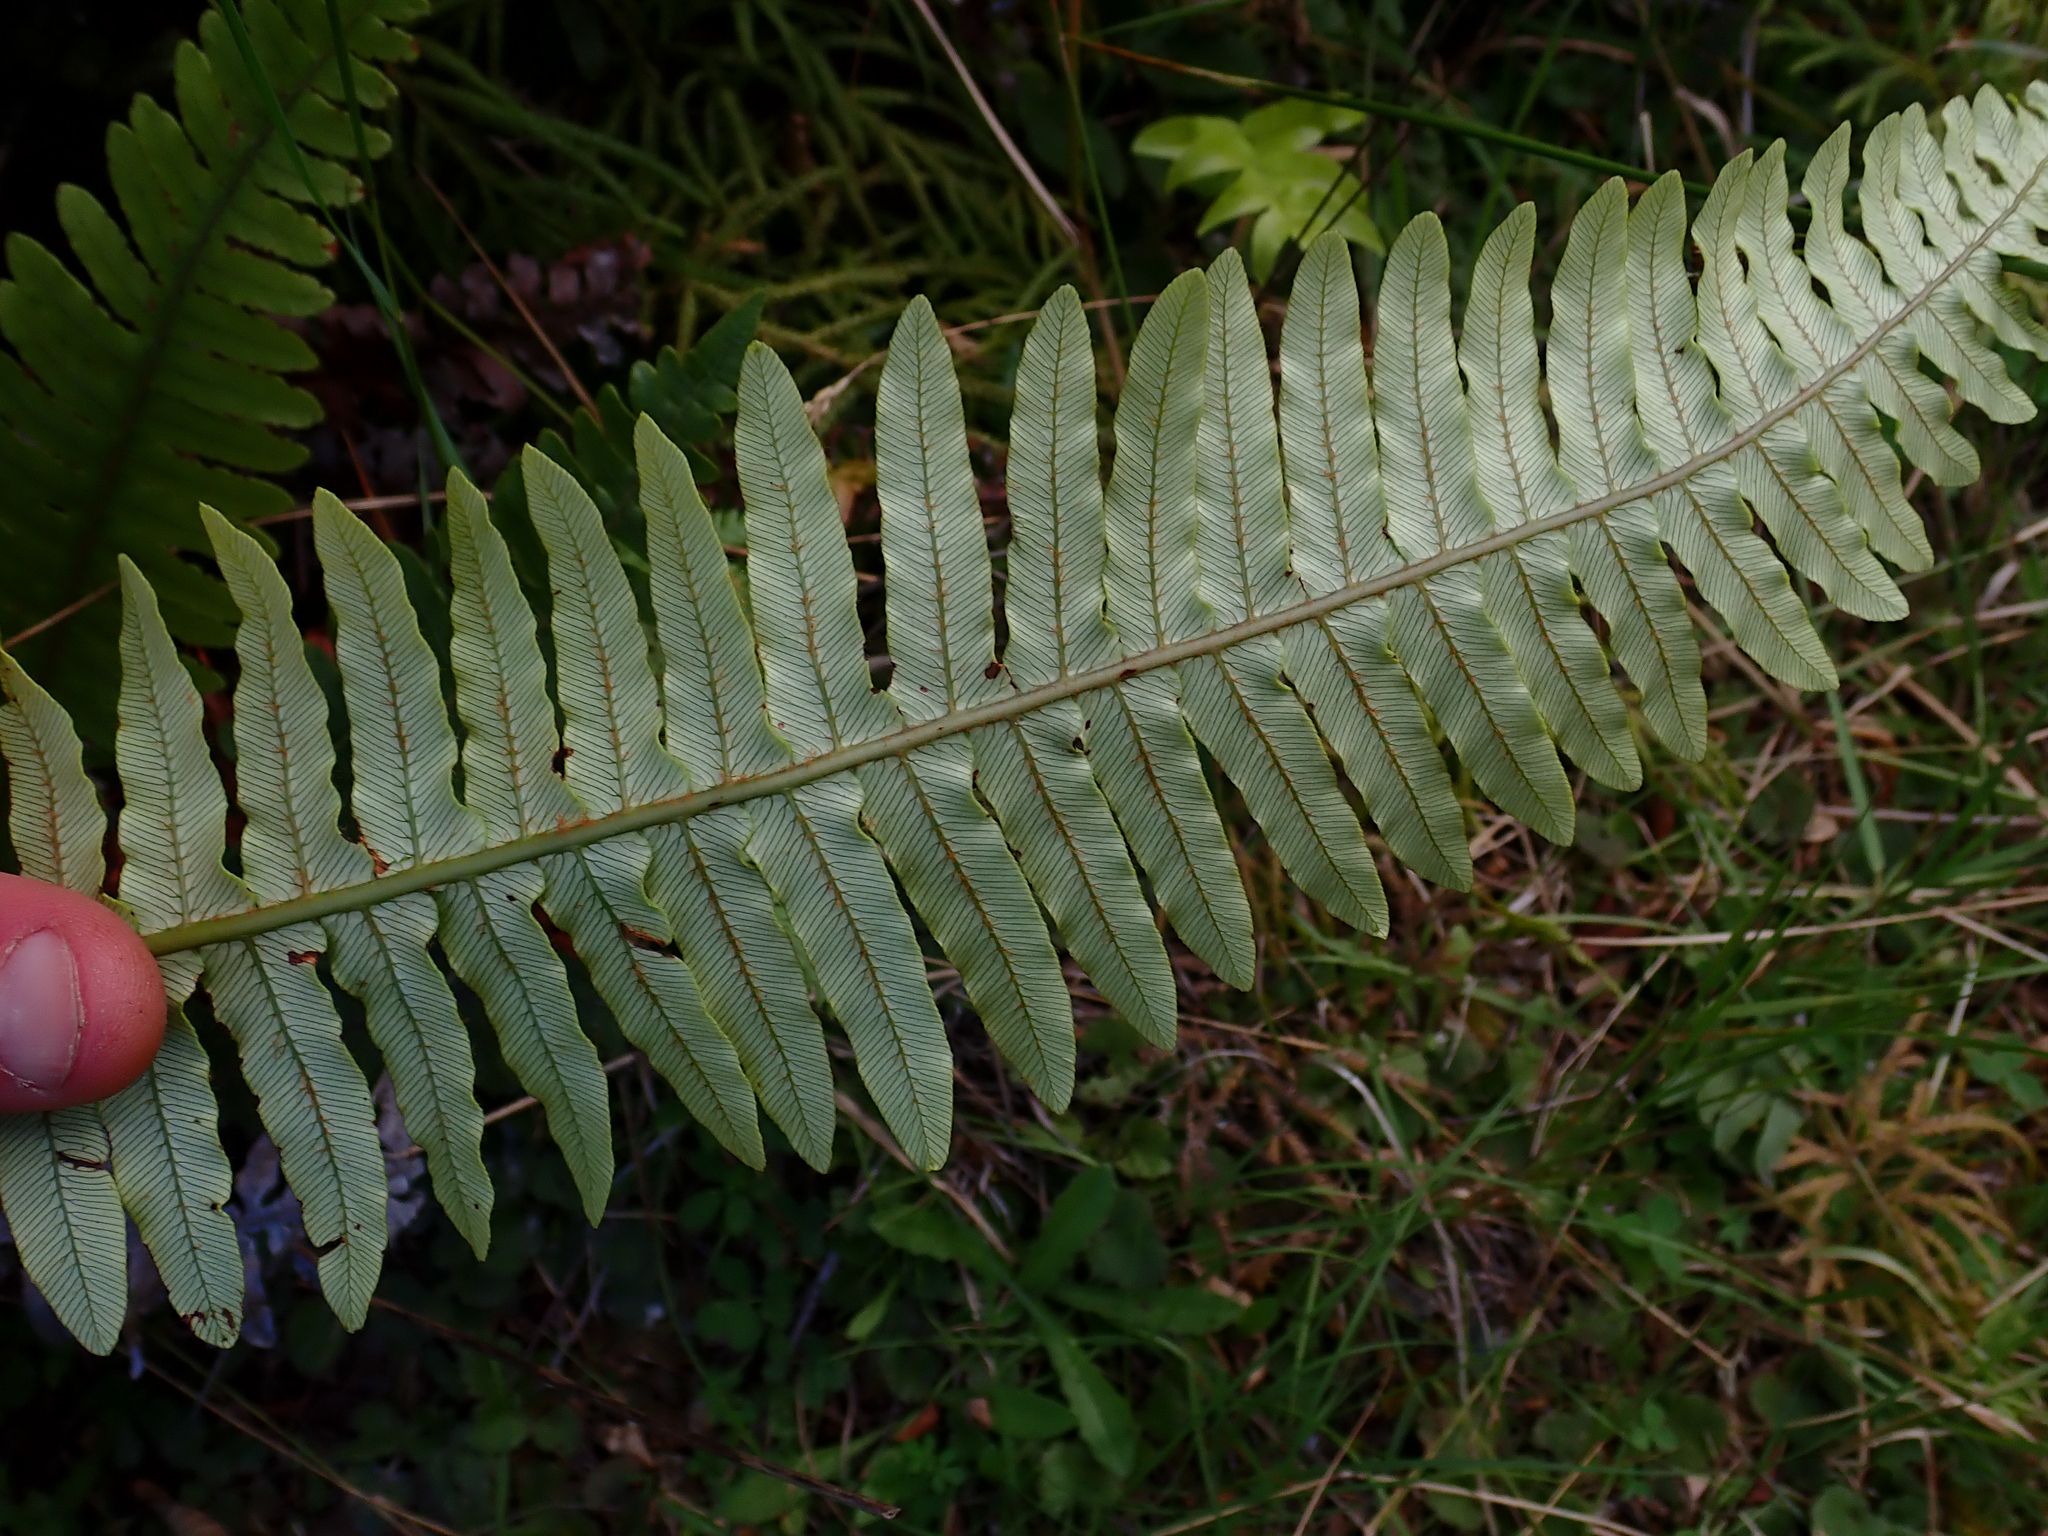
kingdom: Plantae
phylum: Tracheophyta
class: Polypodiopsida
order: Polypodiales
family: Blechnaceae
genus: Lomaria
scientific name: Lomaria discolor
